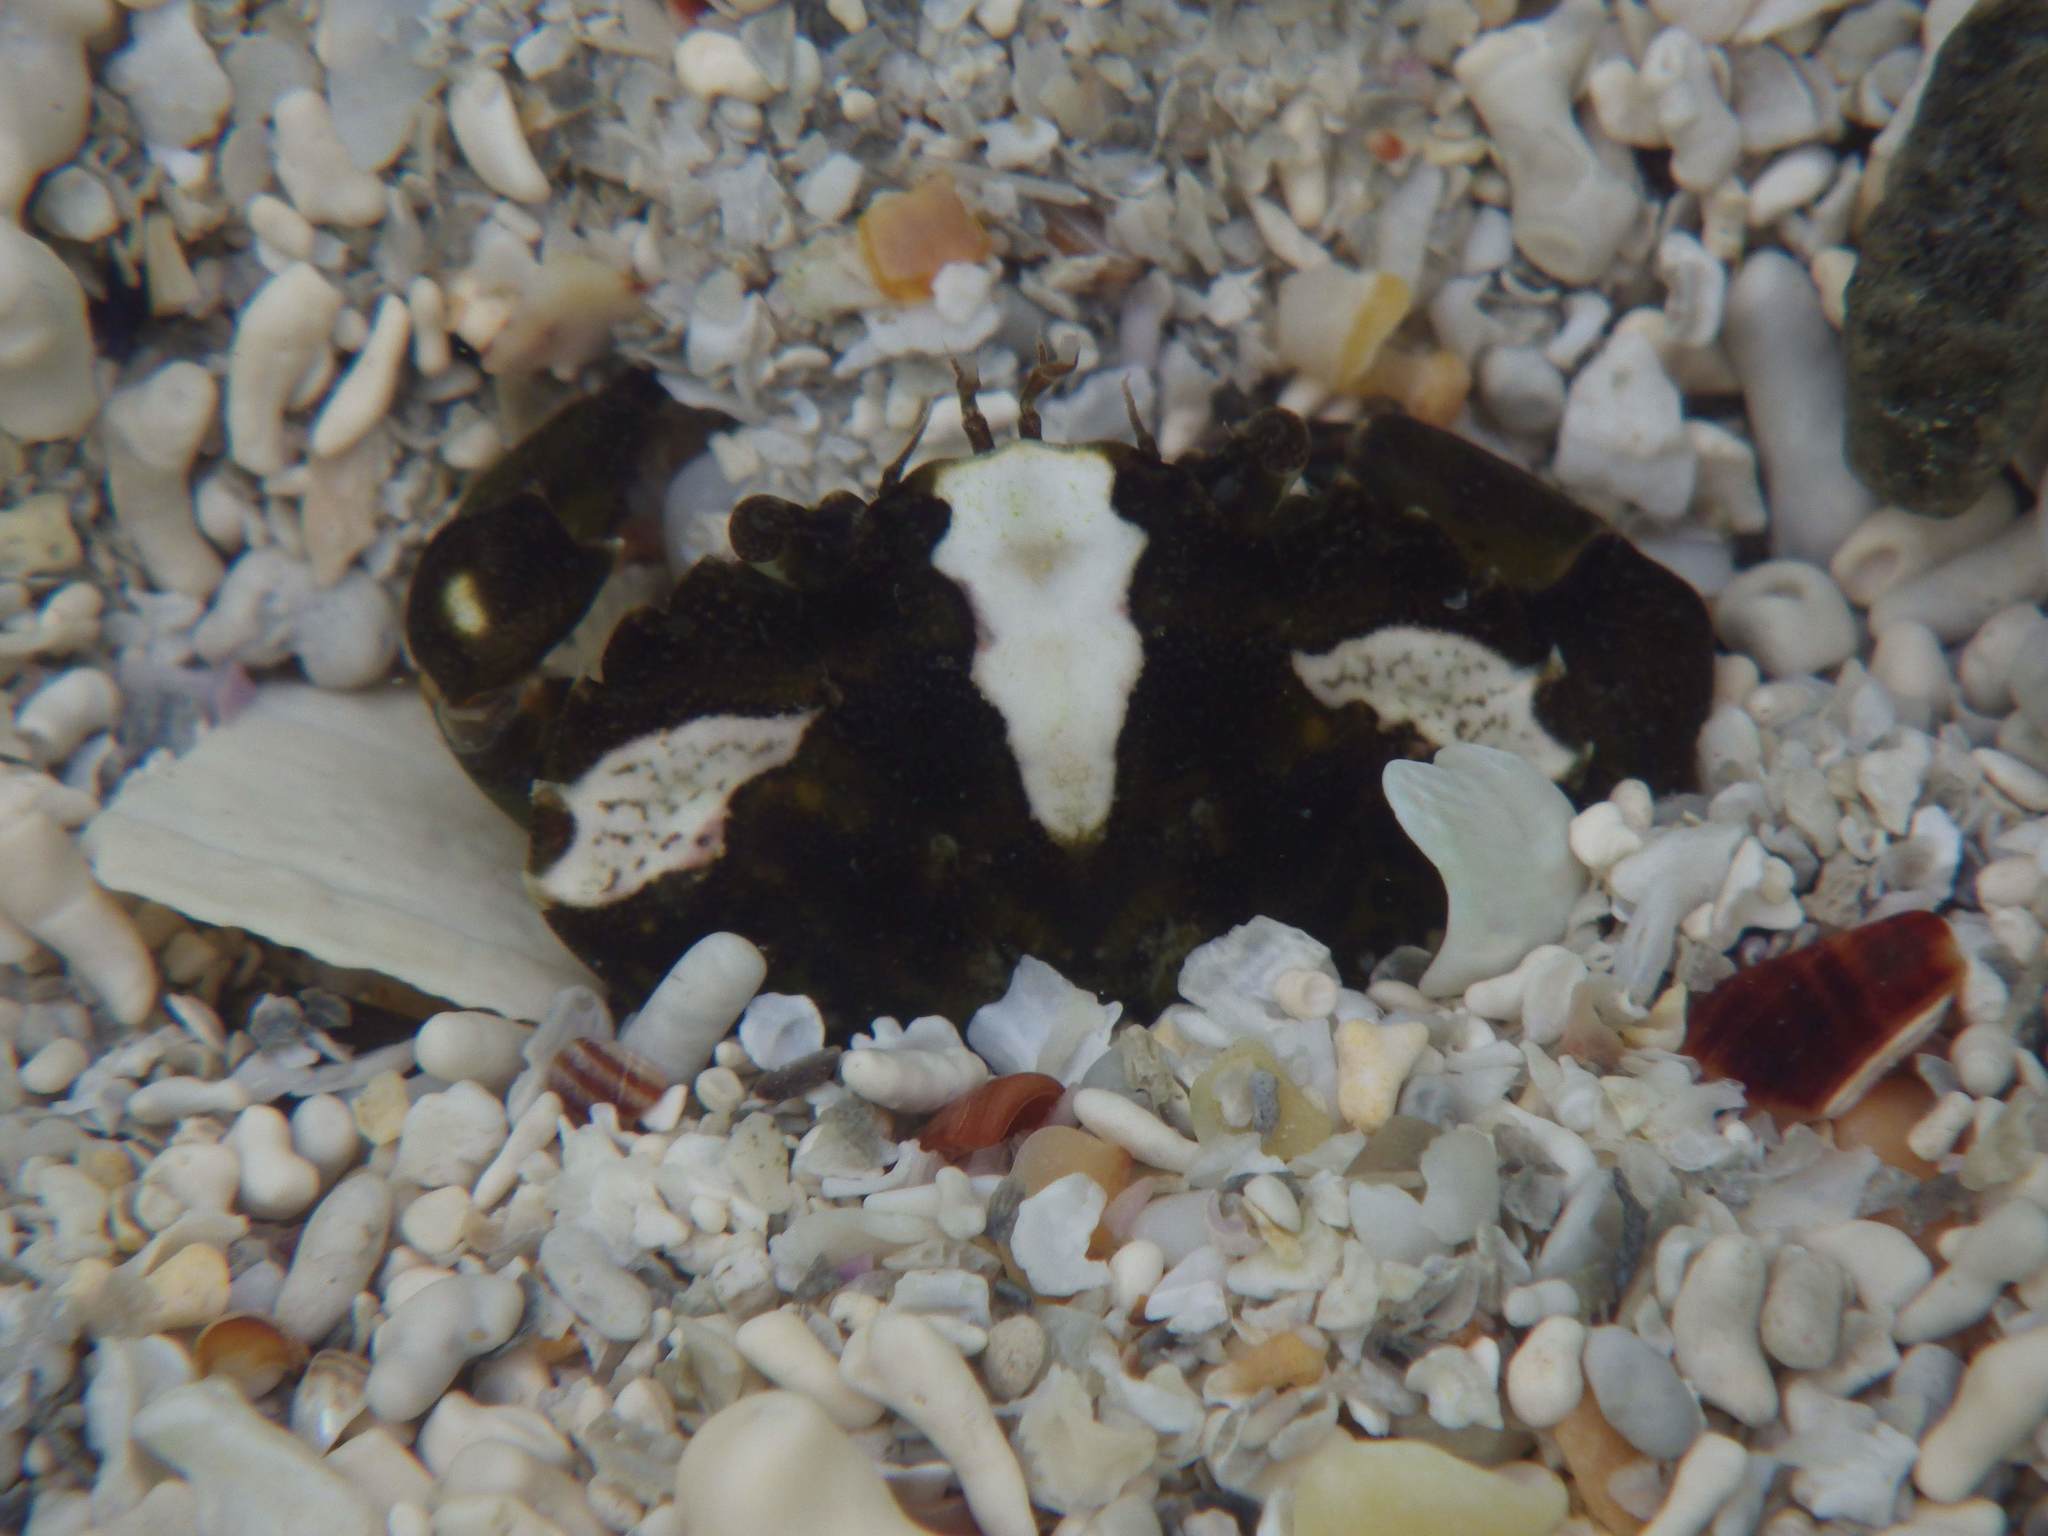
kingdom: Animalia
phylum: Arthropoda
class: Malacostraca
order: Decapoda
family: Carcinidae
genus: Carcinus
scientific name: Carcinus maenas
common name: European green crab
